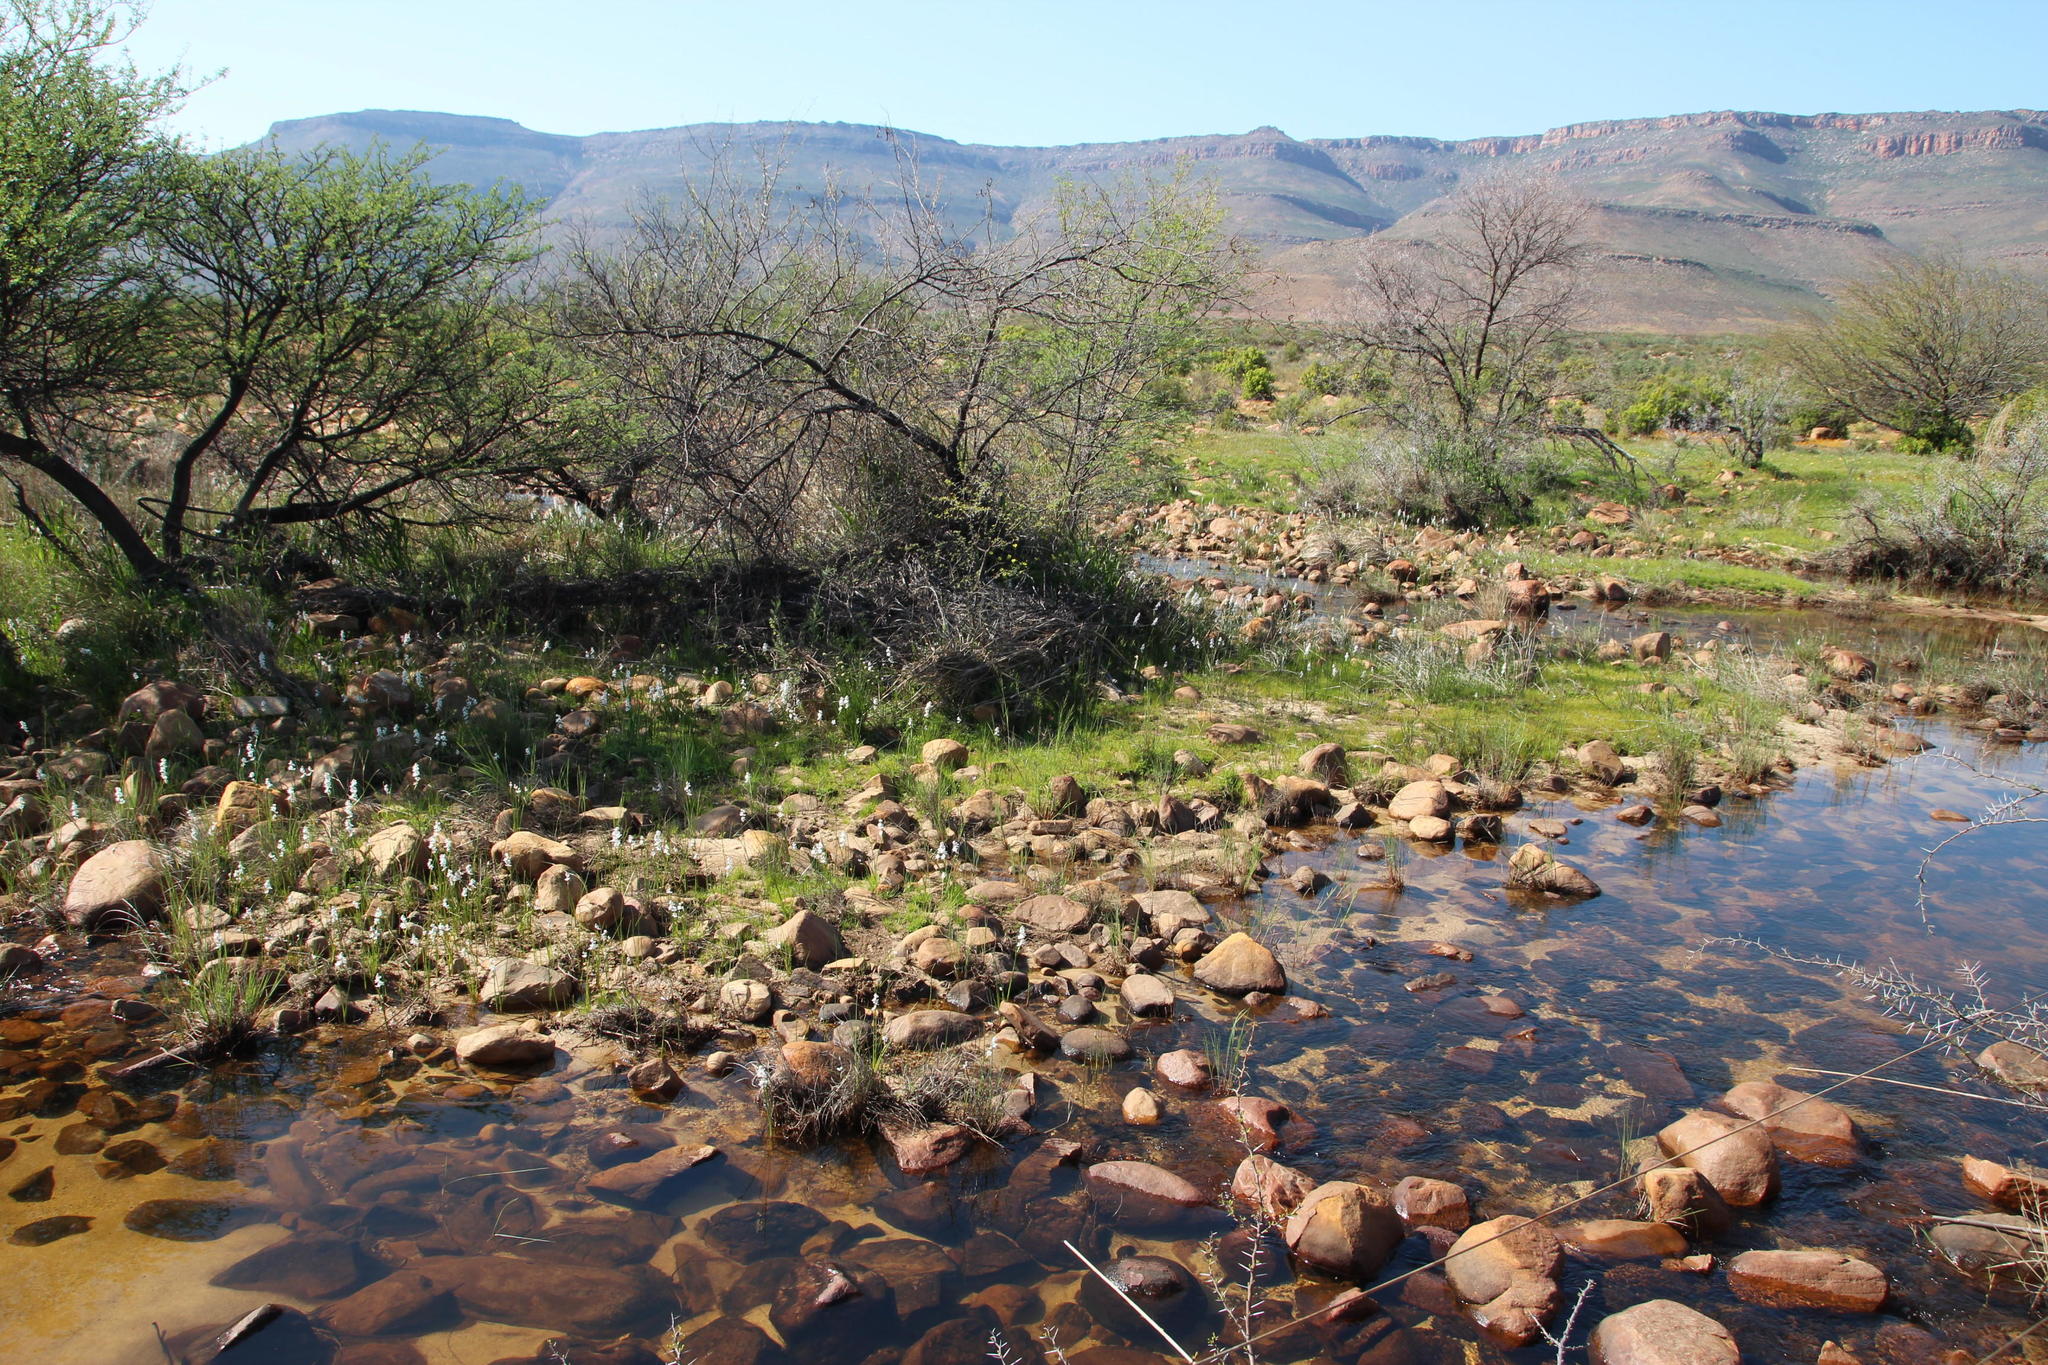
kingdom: Plantae
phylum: Tracheophyta
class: Magnoliopsida
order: Fabales
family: Fabaceae
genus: Vachellia
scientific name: Vachellia karroo
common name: Sweet thorn
